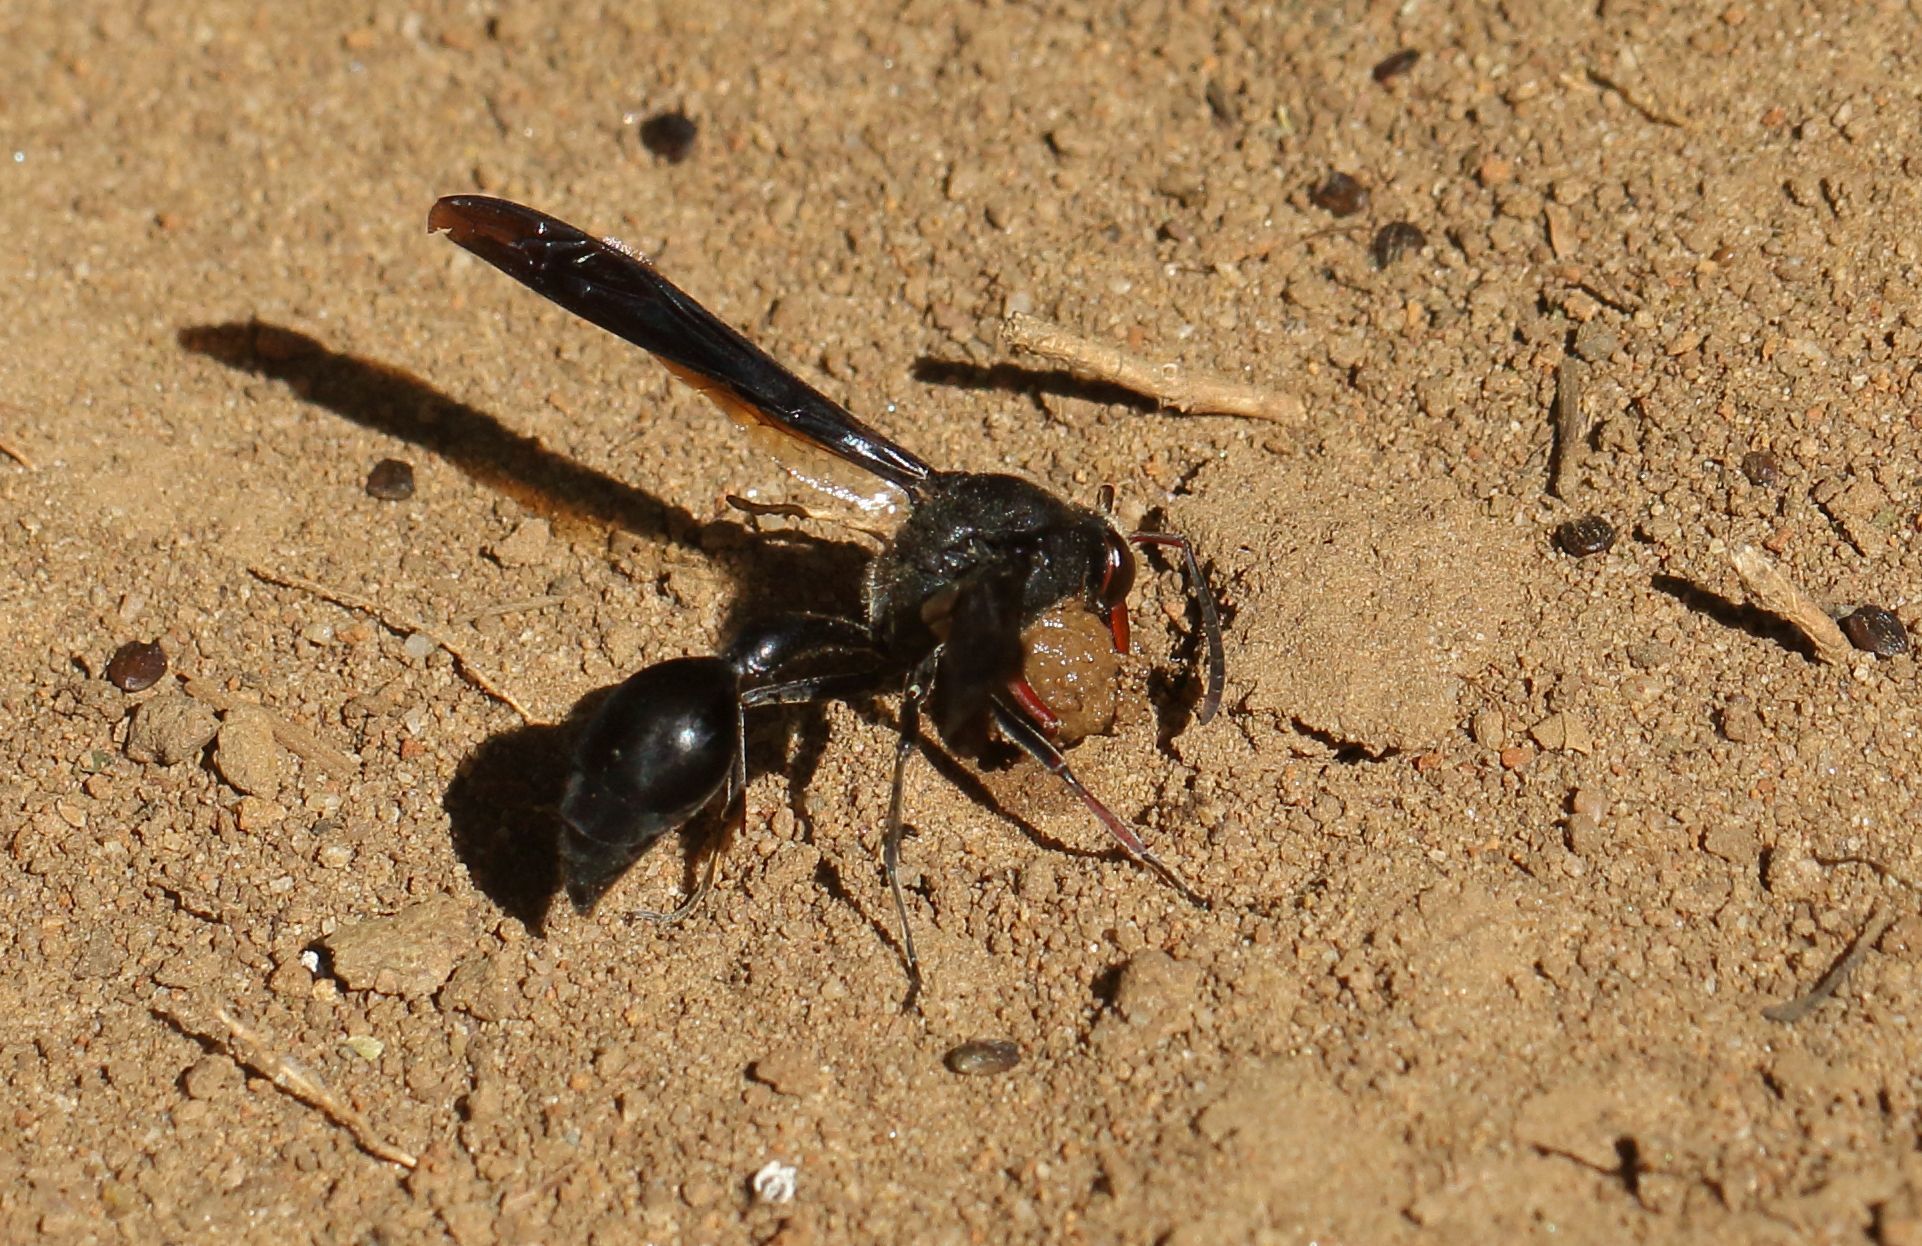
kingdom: Animalia
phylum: Arthropoda
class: Insecta
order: Hymenoptera
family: Eumenidae
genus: Delta
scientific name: Delta bonellii
